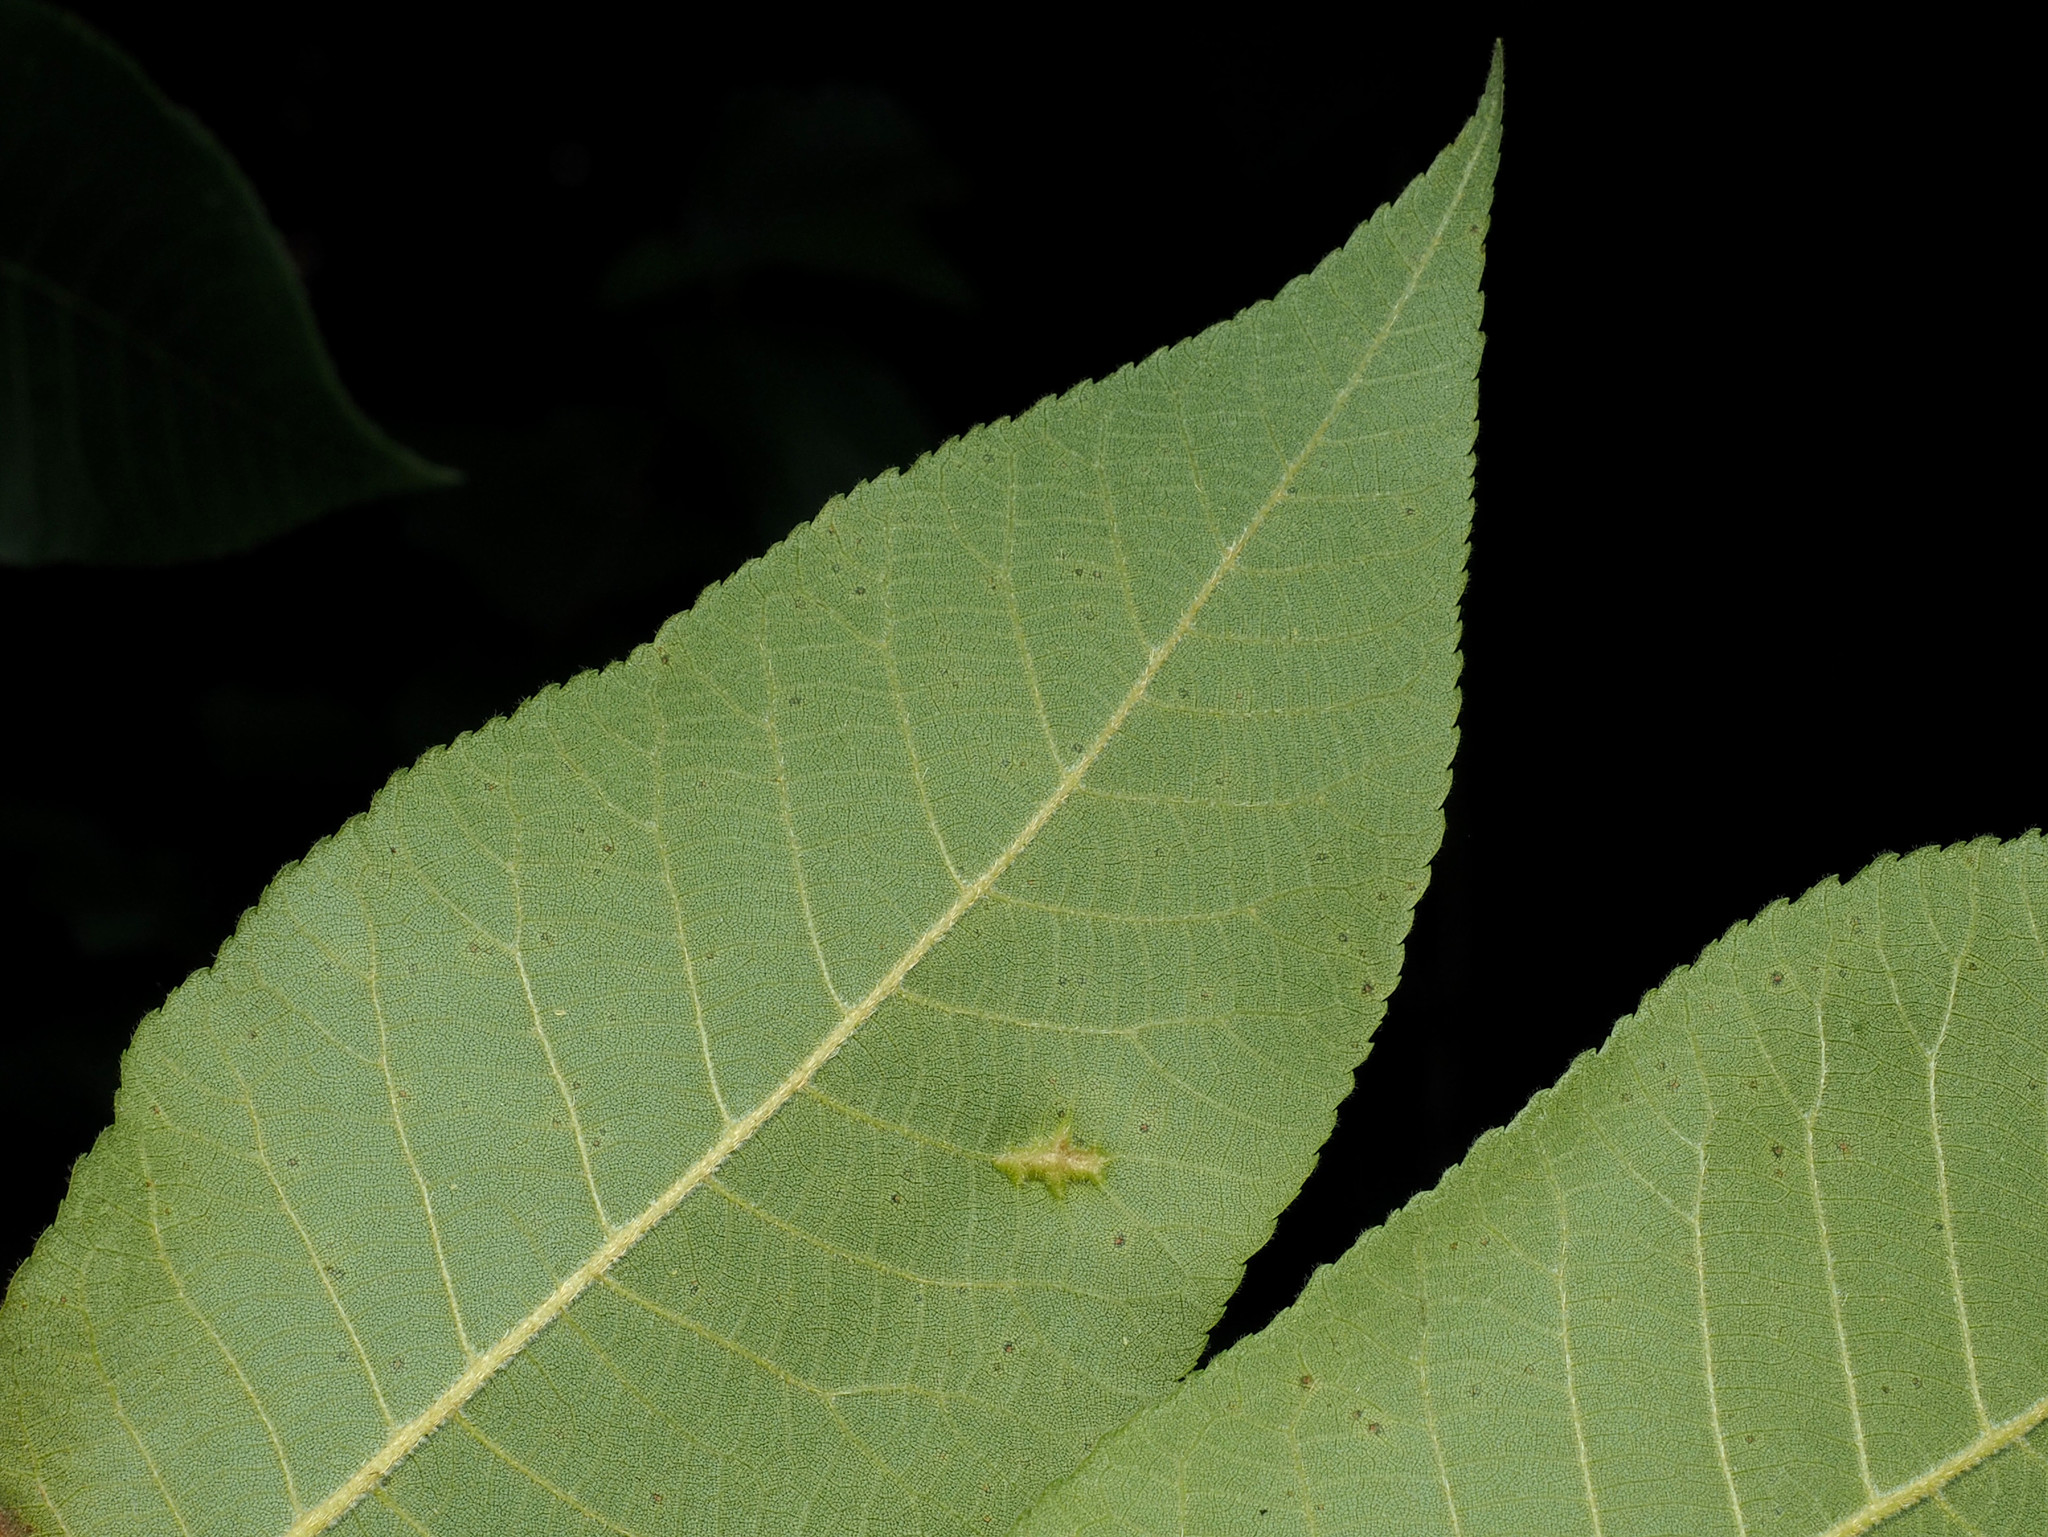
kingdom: Animalia
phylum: Arthropoda
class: Insecta
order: Hemiptera
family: Phylloxeridae
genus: Phylloxera
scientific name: Phylloxera caryaevenae
